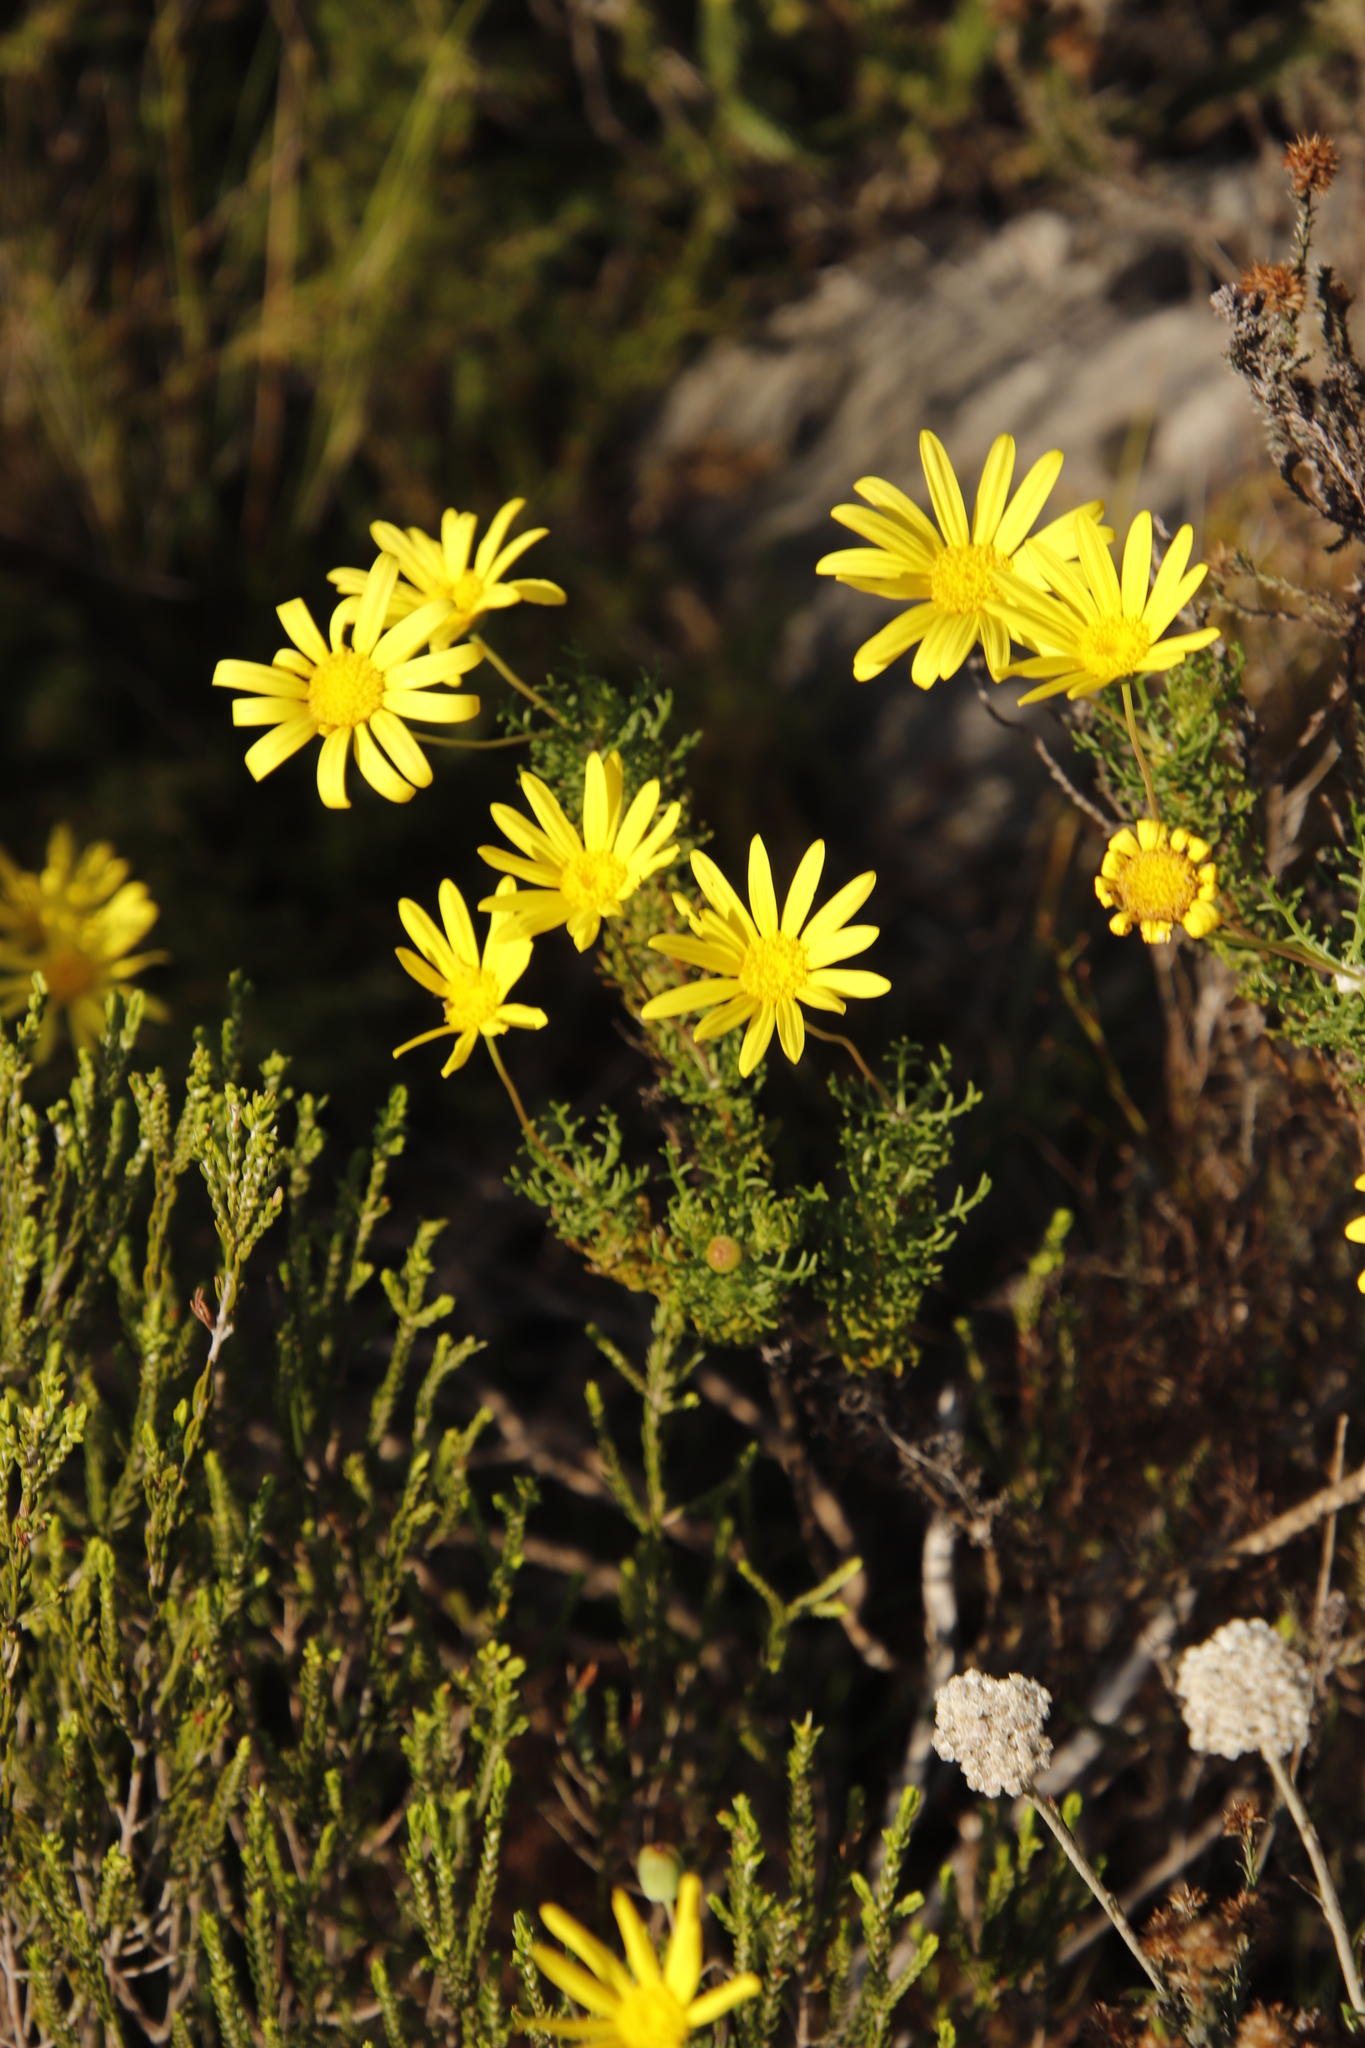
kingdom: Plantae
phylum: Tracheophyta
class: Magnoliopsida
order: Asterales
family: Asteraceae
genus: Euryops
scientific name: Euryops abrotanifolius
